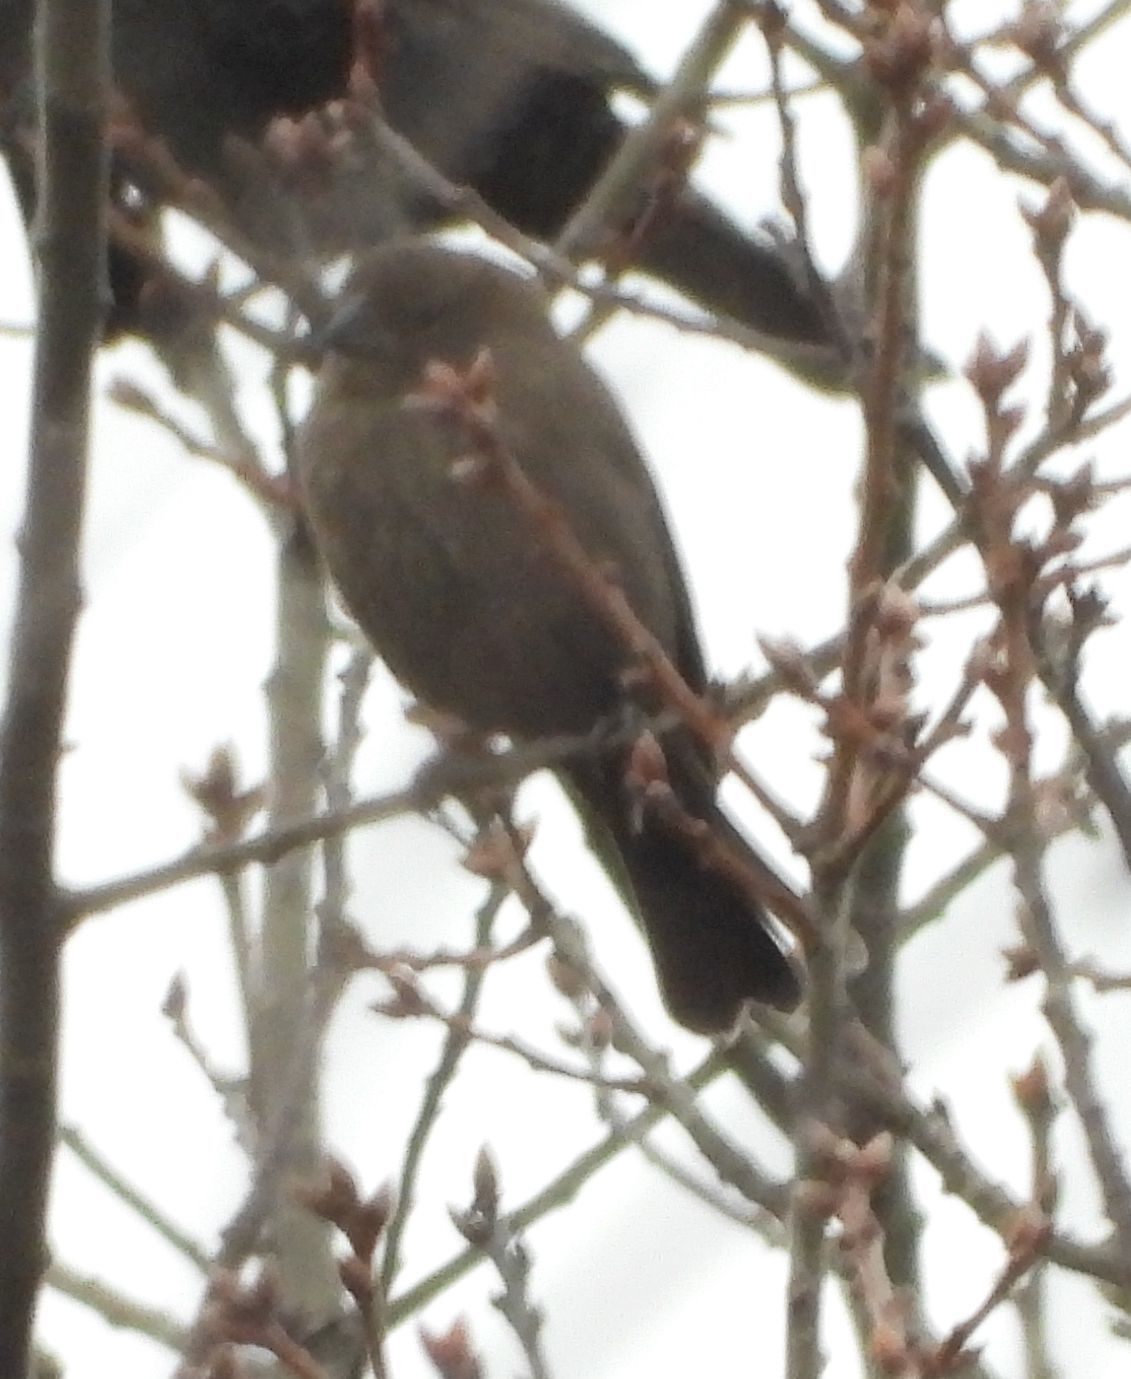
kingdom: Animalia
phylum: Chordata
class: Aves
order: Passeriformes
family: Icteridae
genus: Molothrus
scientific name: Molothrus ater
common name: Brown-headed cowbird
